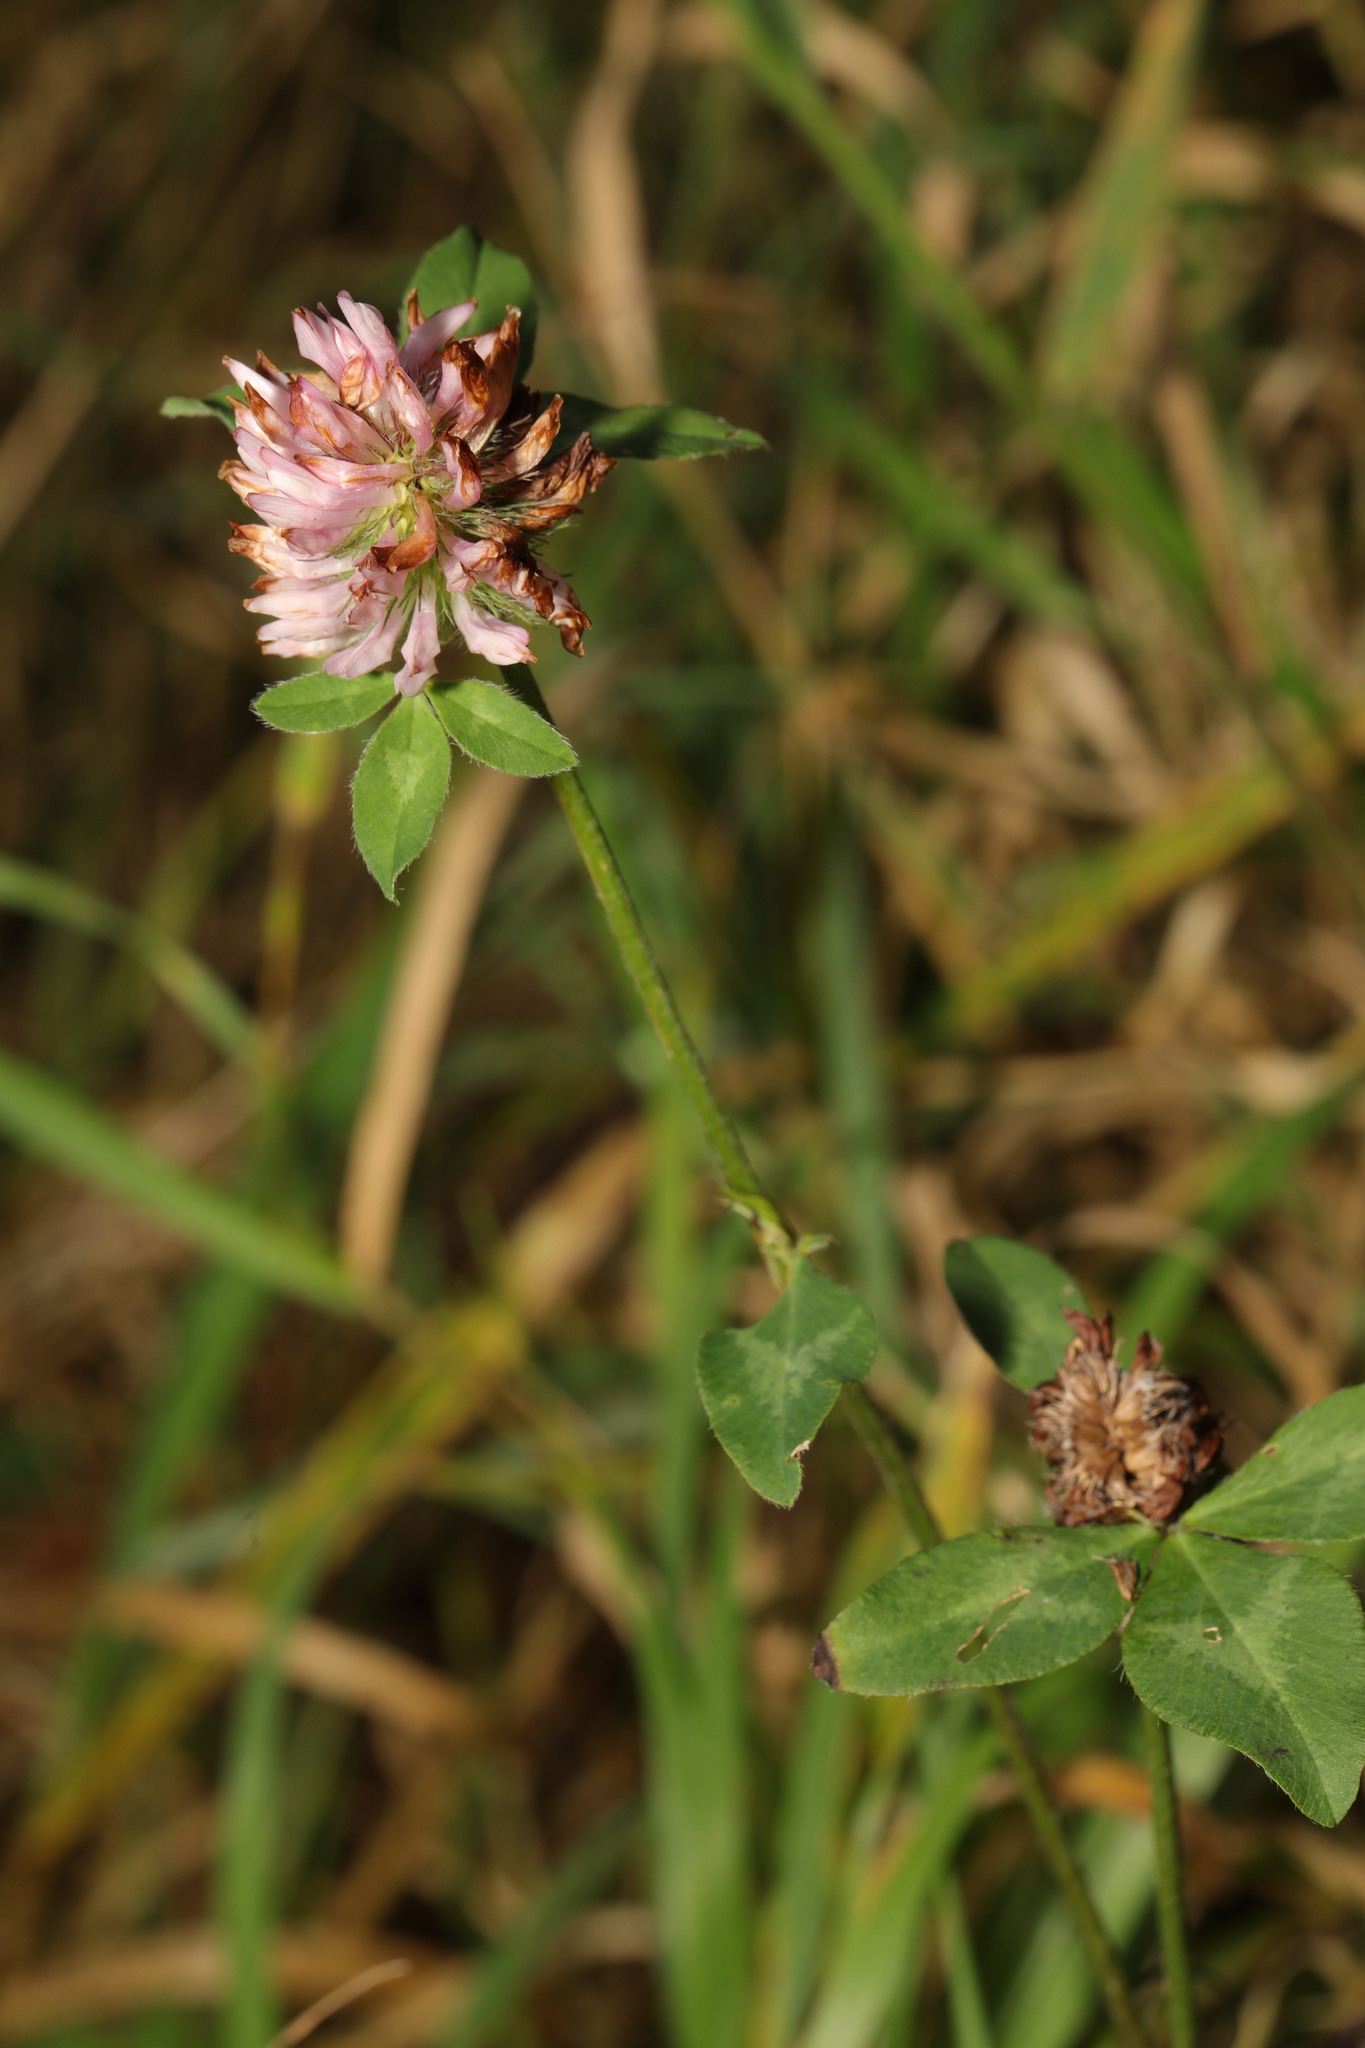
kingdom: Plantae
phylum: Tracheophyta
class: Magnoliopsida
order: Fabales
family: Fabaceae
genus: Trifolium
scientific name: Trifolium pratense
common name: Red clover
